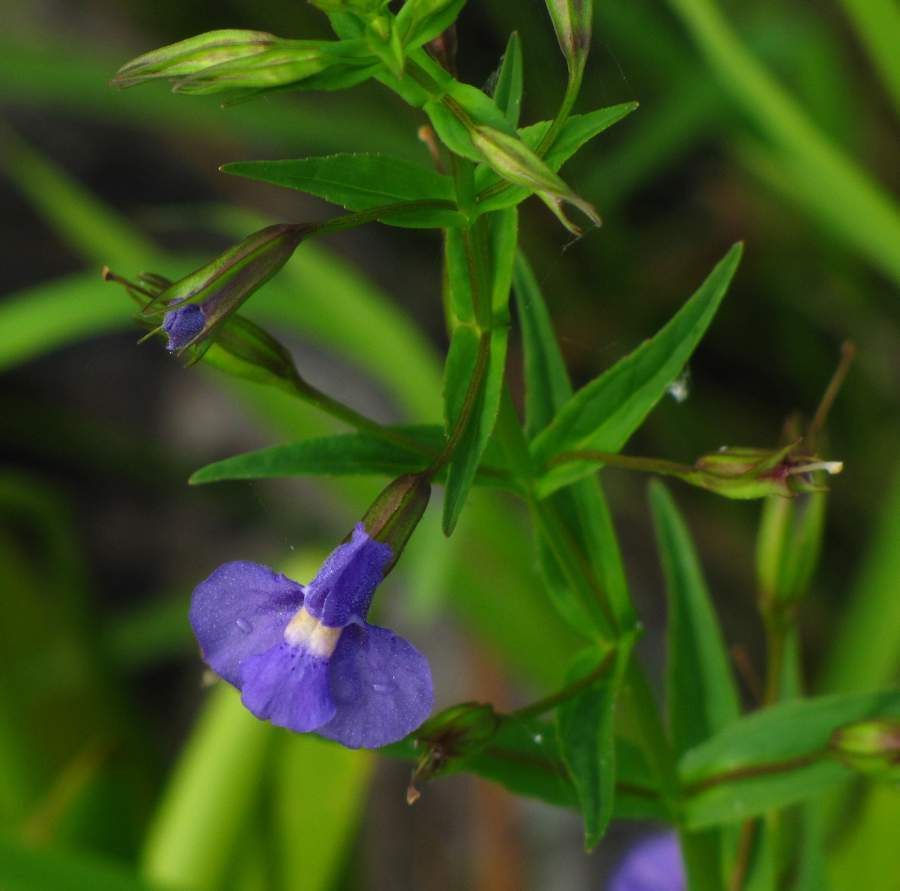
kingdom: Plantae
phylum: Tracheophyta
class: Magnoliopsida
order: Lamiales
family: Phrymaceae
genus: Mimulus
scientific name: Mimulus ringens
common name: Allegheny monkeyflower
